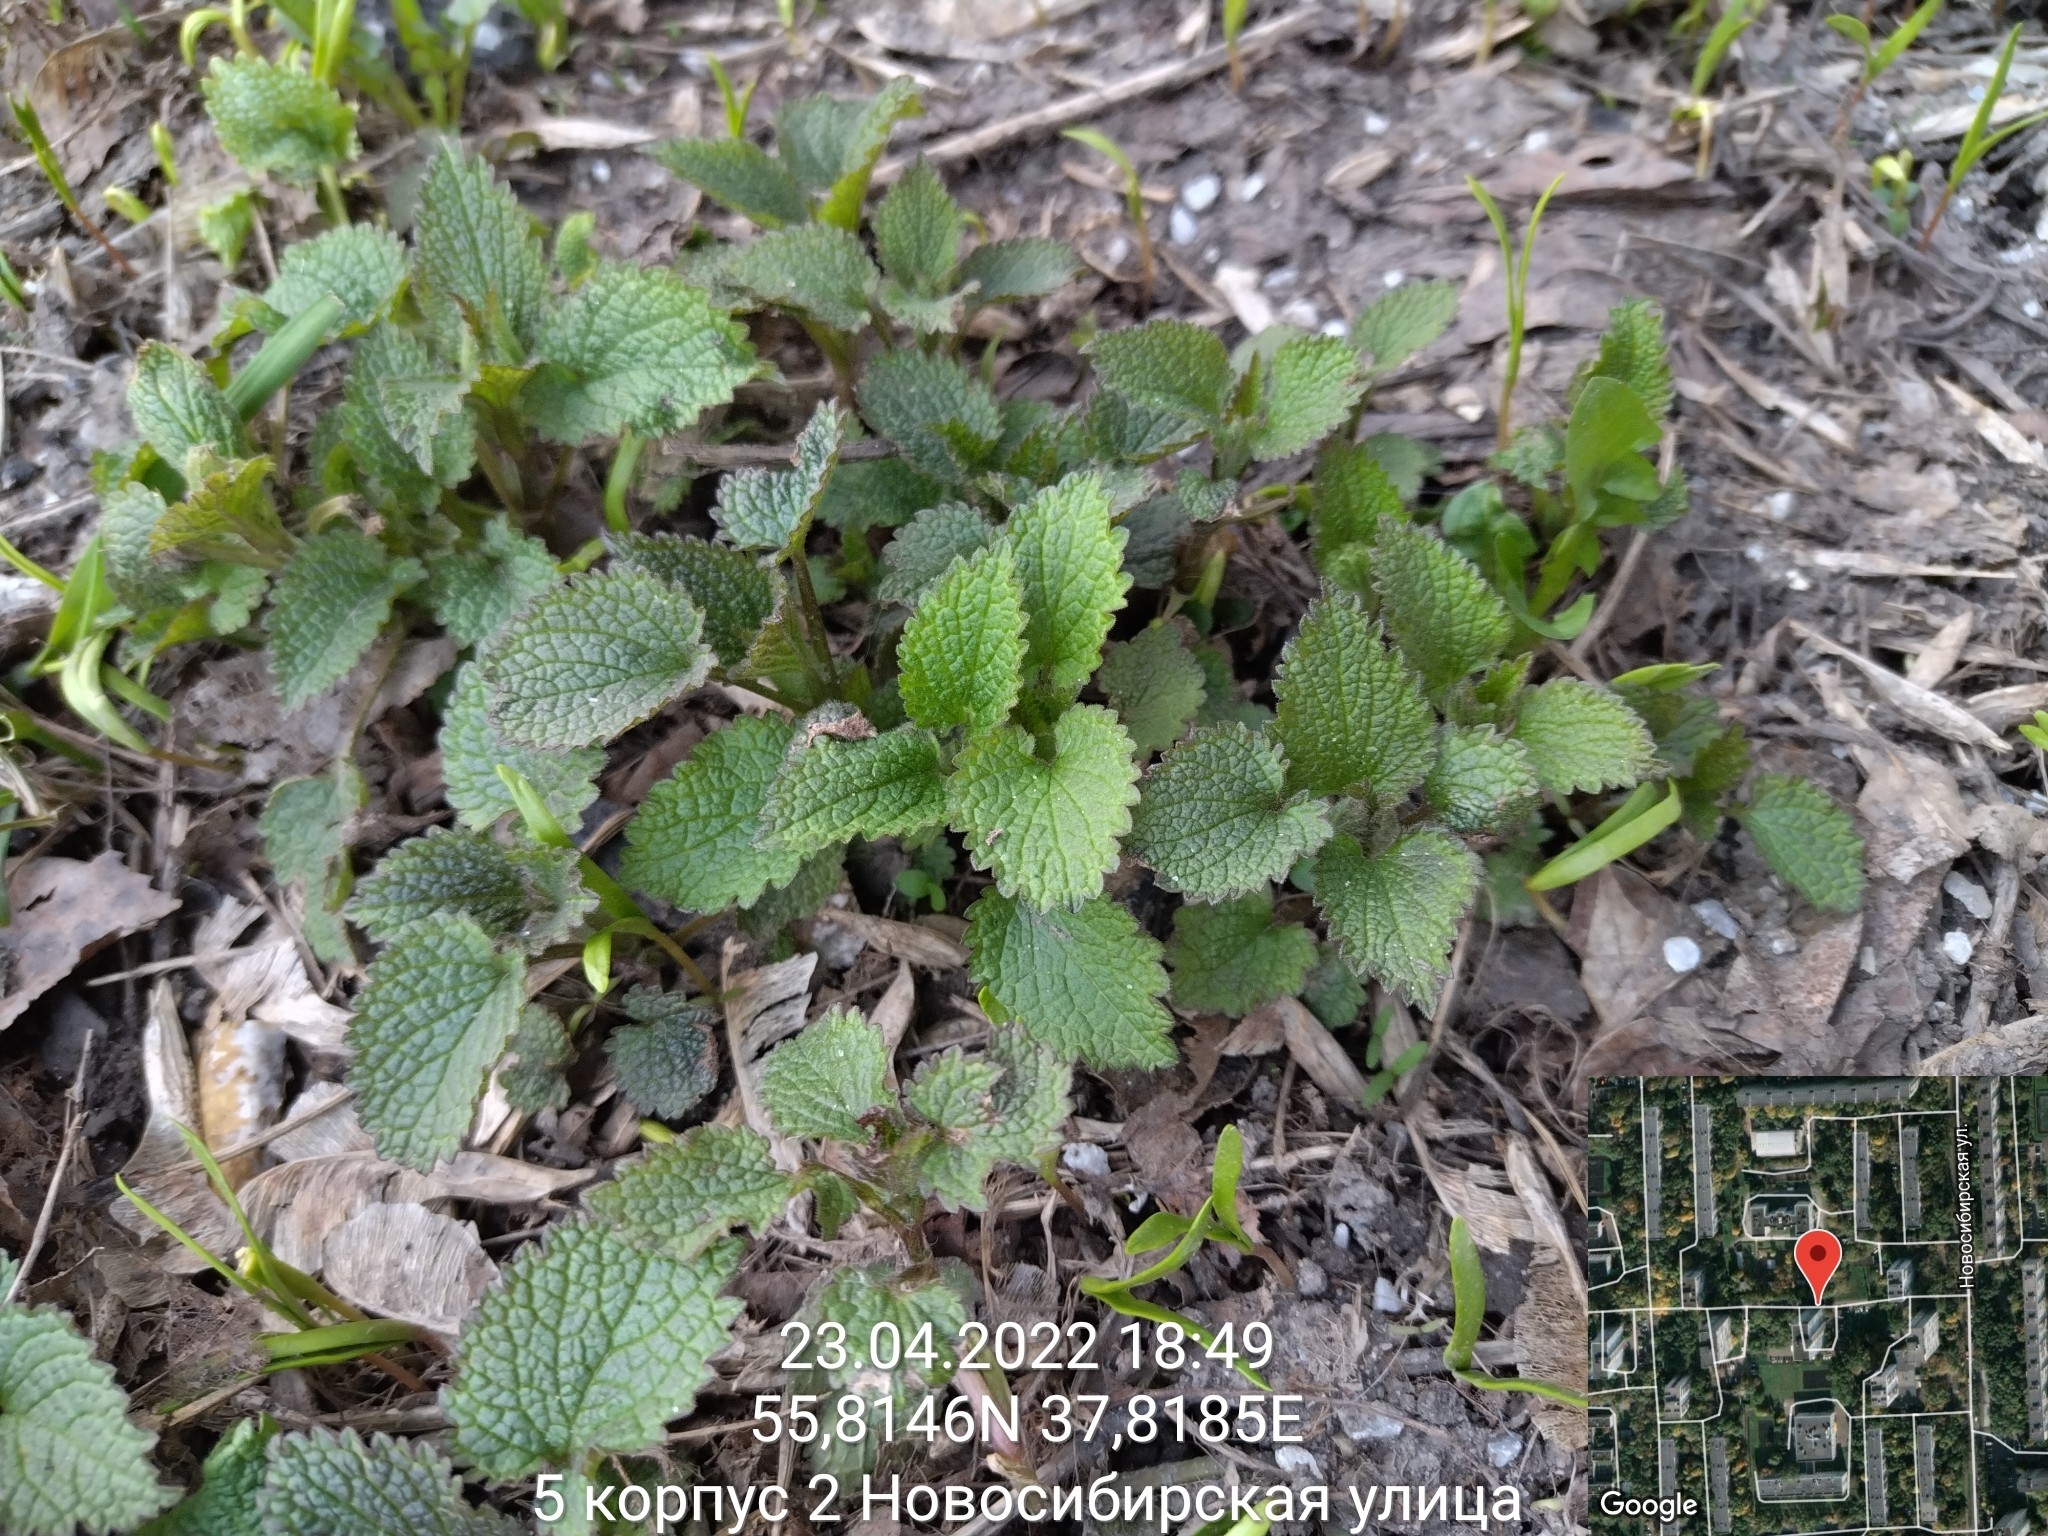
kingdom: Plantae
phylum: Tracheophyta
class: Magnoliopsida
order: Lamiales
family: Lamiaceae
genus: Lamium
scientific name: Lamium album
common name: White dead-nettle
